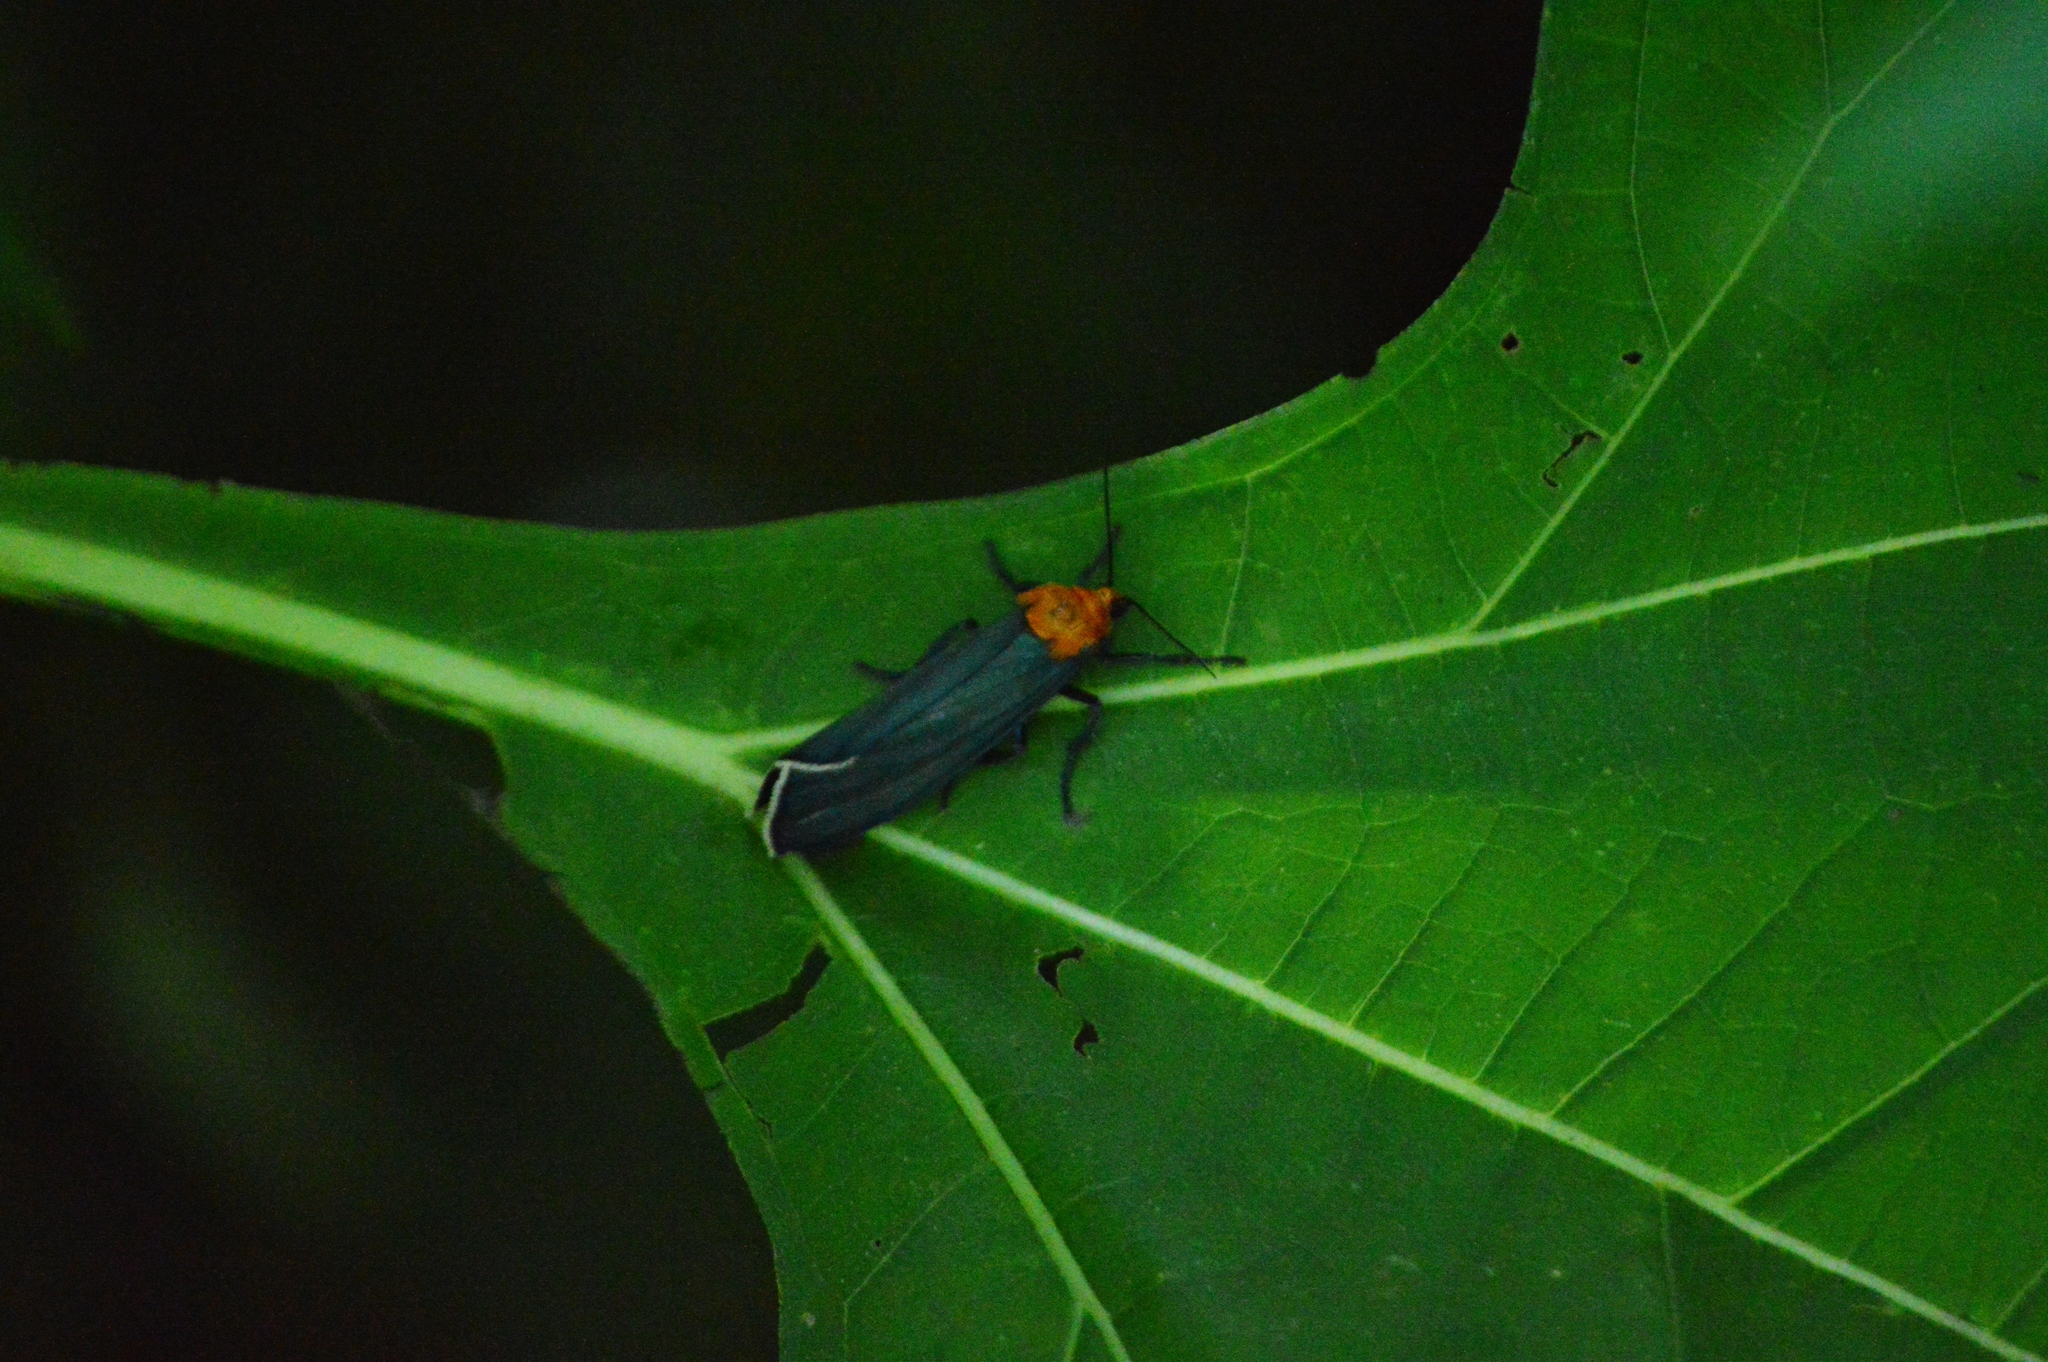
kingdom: Animalia
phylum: Arthropoda
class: Insecta
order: Lepidoptera
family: Erebidae
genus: Apistosia
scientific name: Apistosia judas
